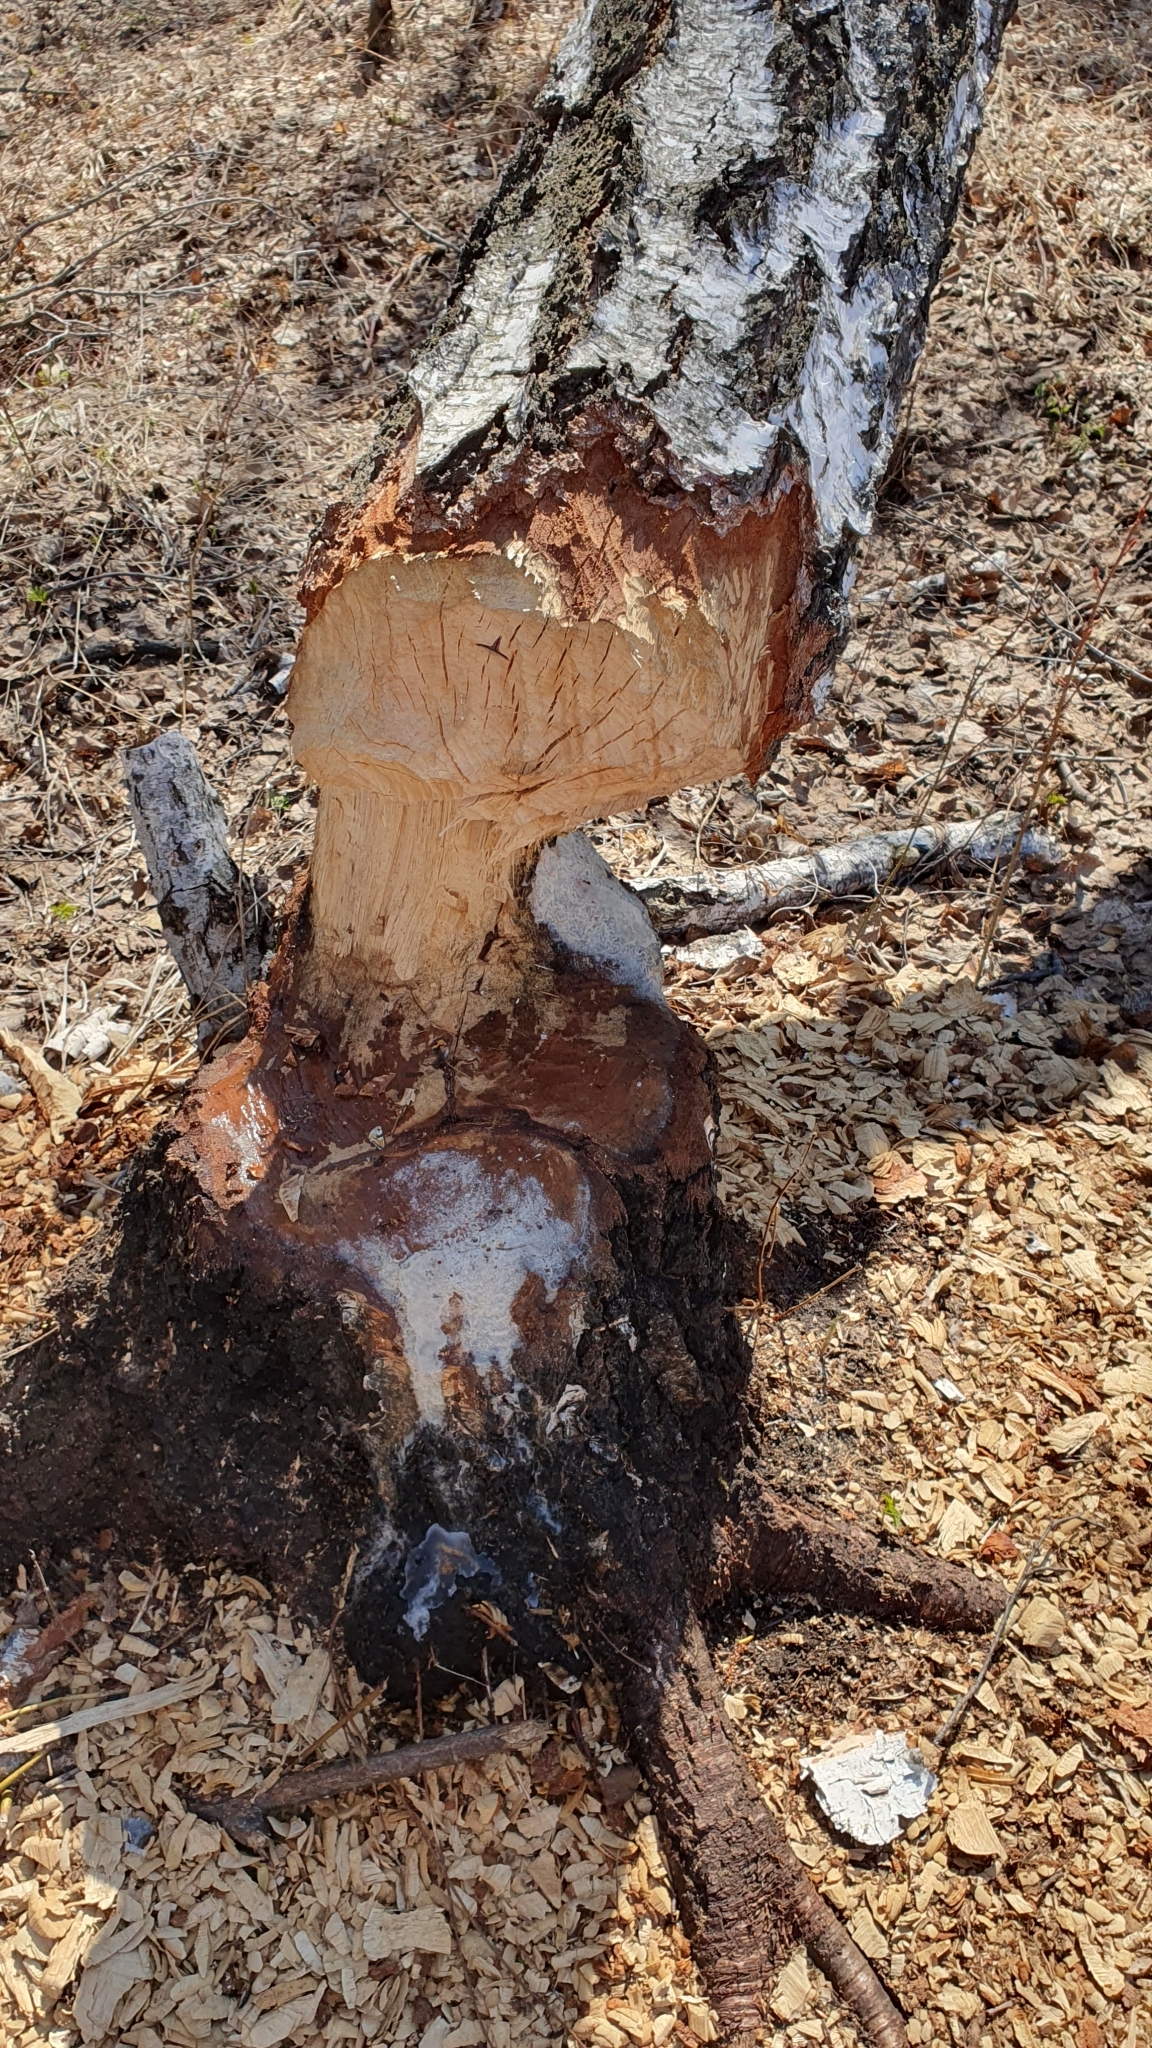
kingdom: Animalia
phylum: Chordata
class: Mammalia
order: Rodentia
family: Castoridae
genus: Castor
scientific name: Castor fiber
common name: Eurasian beaver
